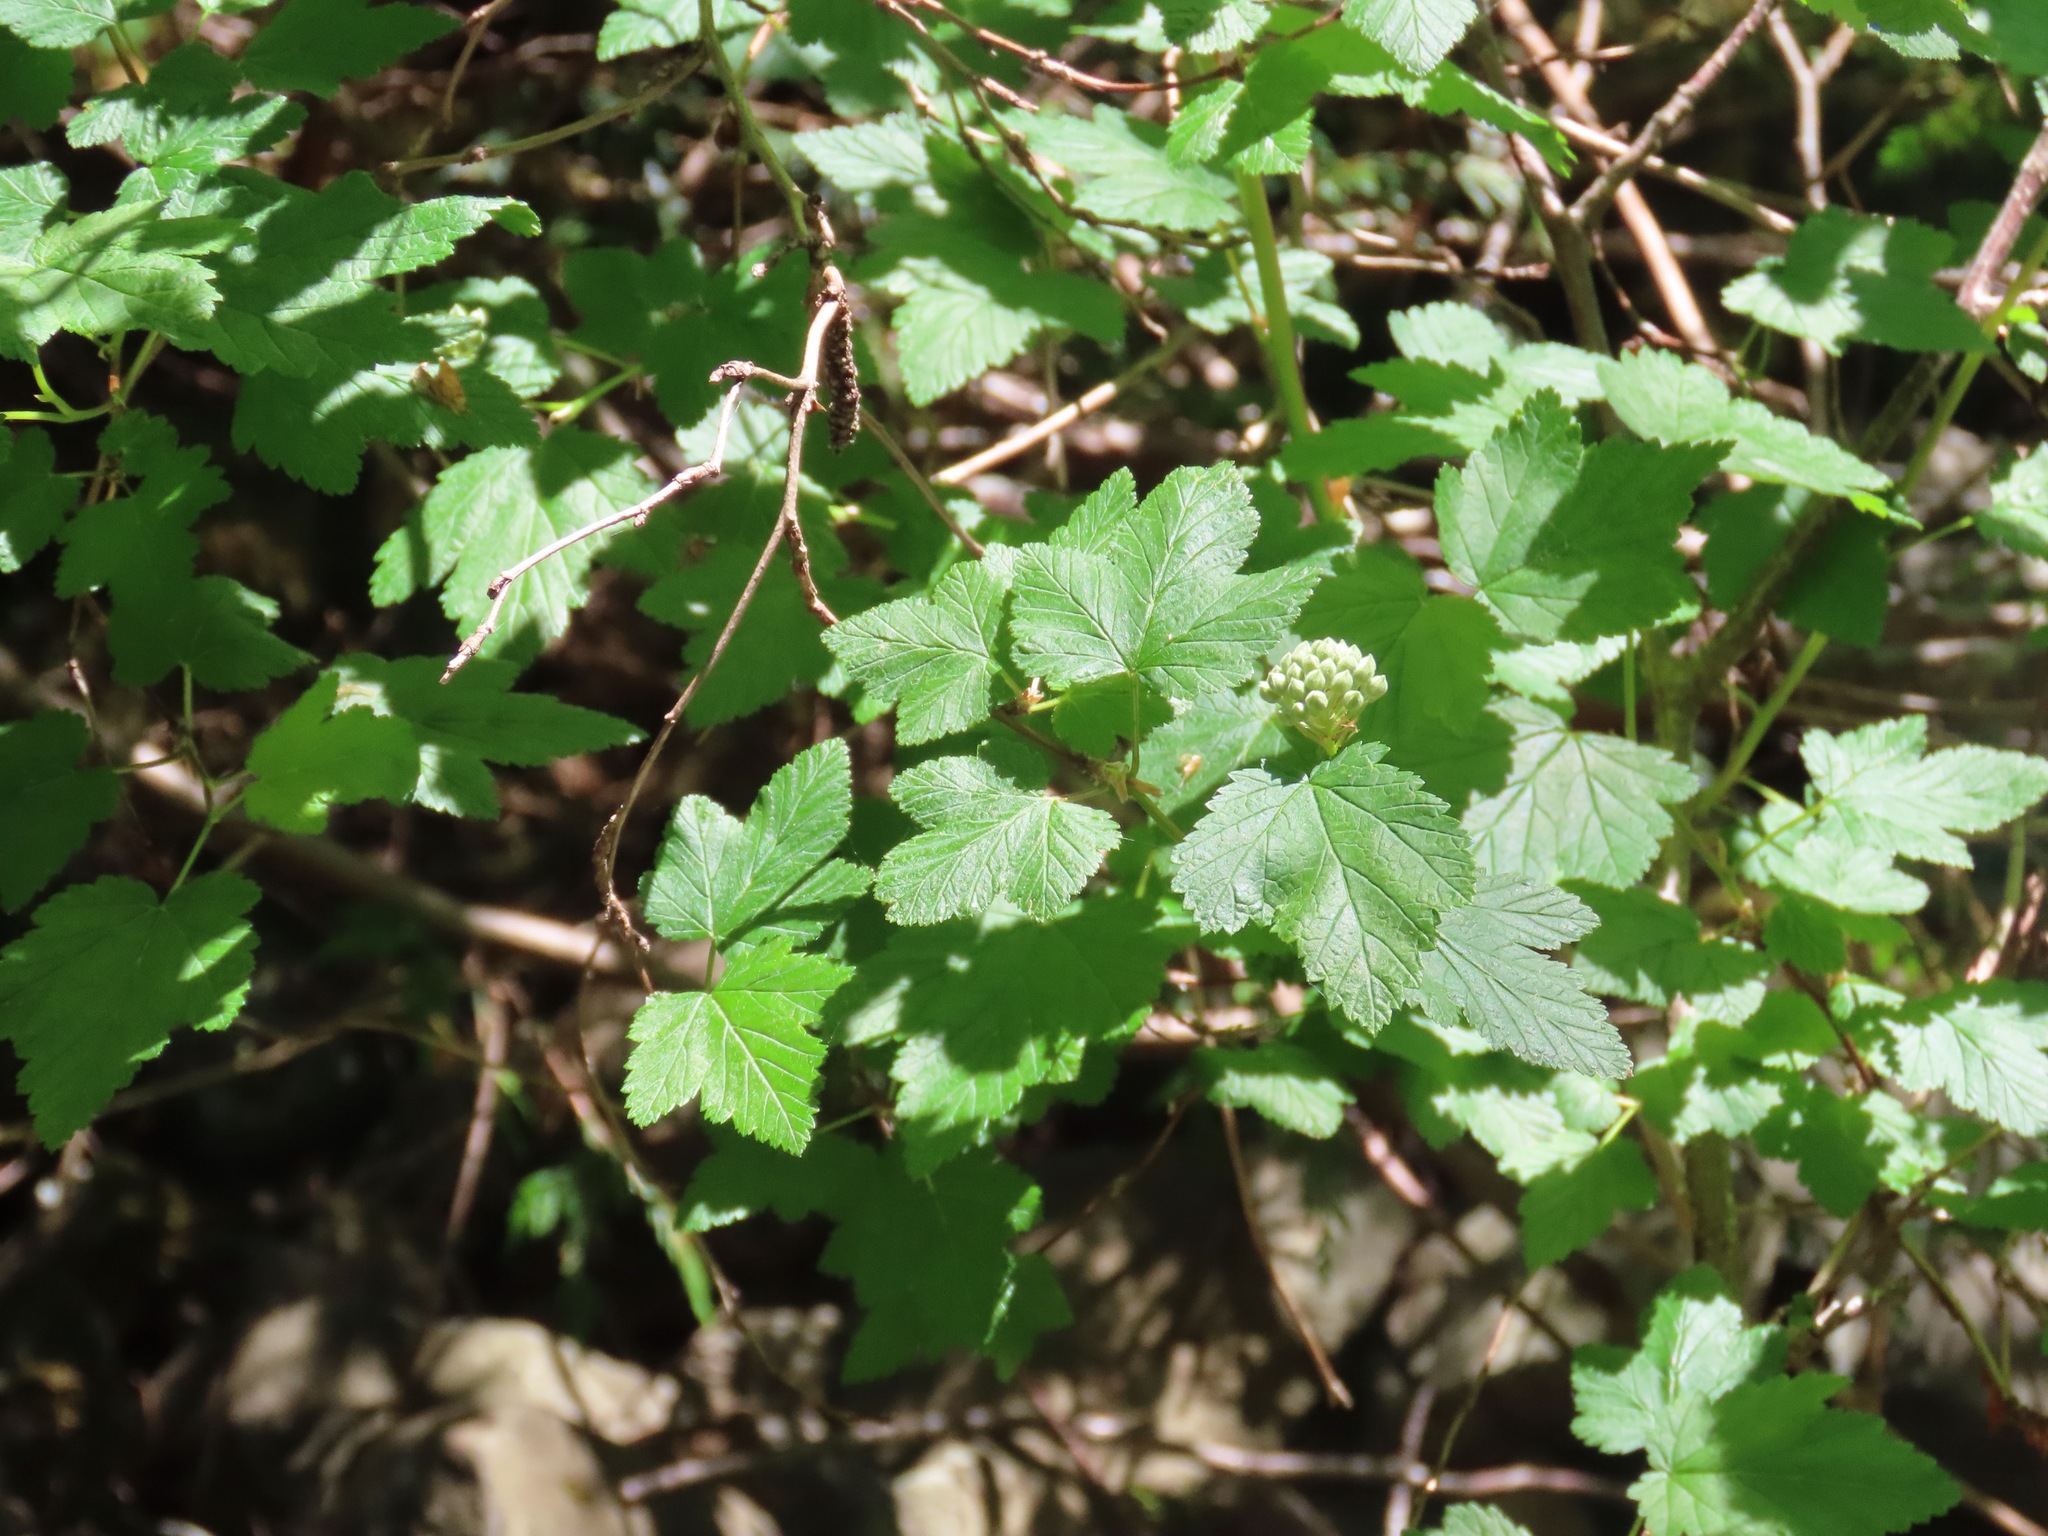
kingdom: Plantae
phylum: Tracheophyta
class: Magnoliopsida
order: Rosales
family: Rosaceae
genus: Physocarpus
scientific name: Physocarpus capitatus
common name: Pacific ninebark
